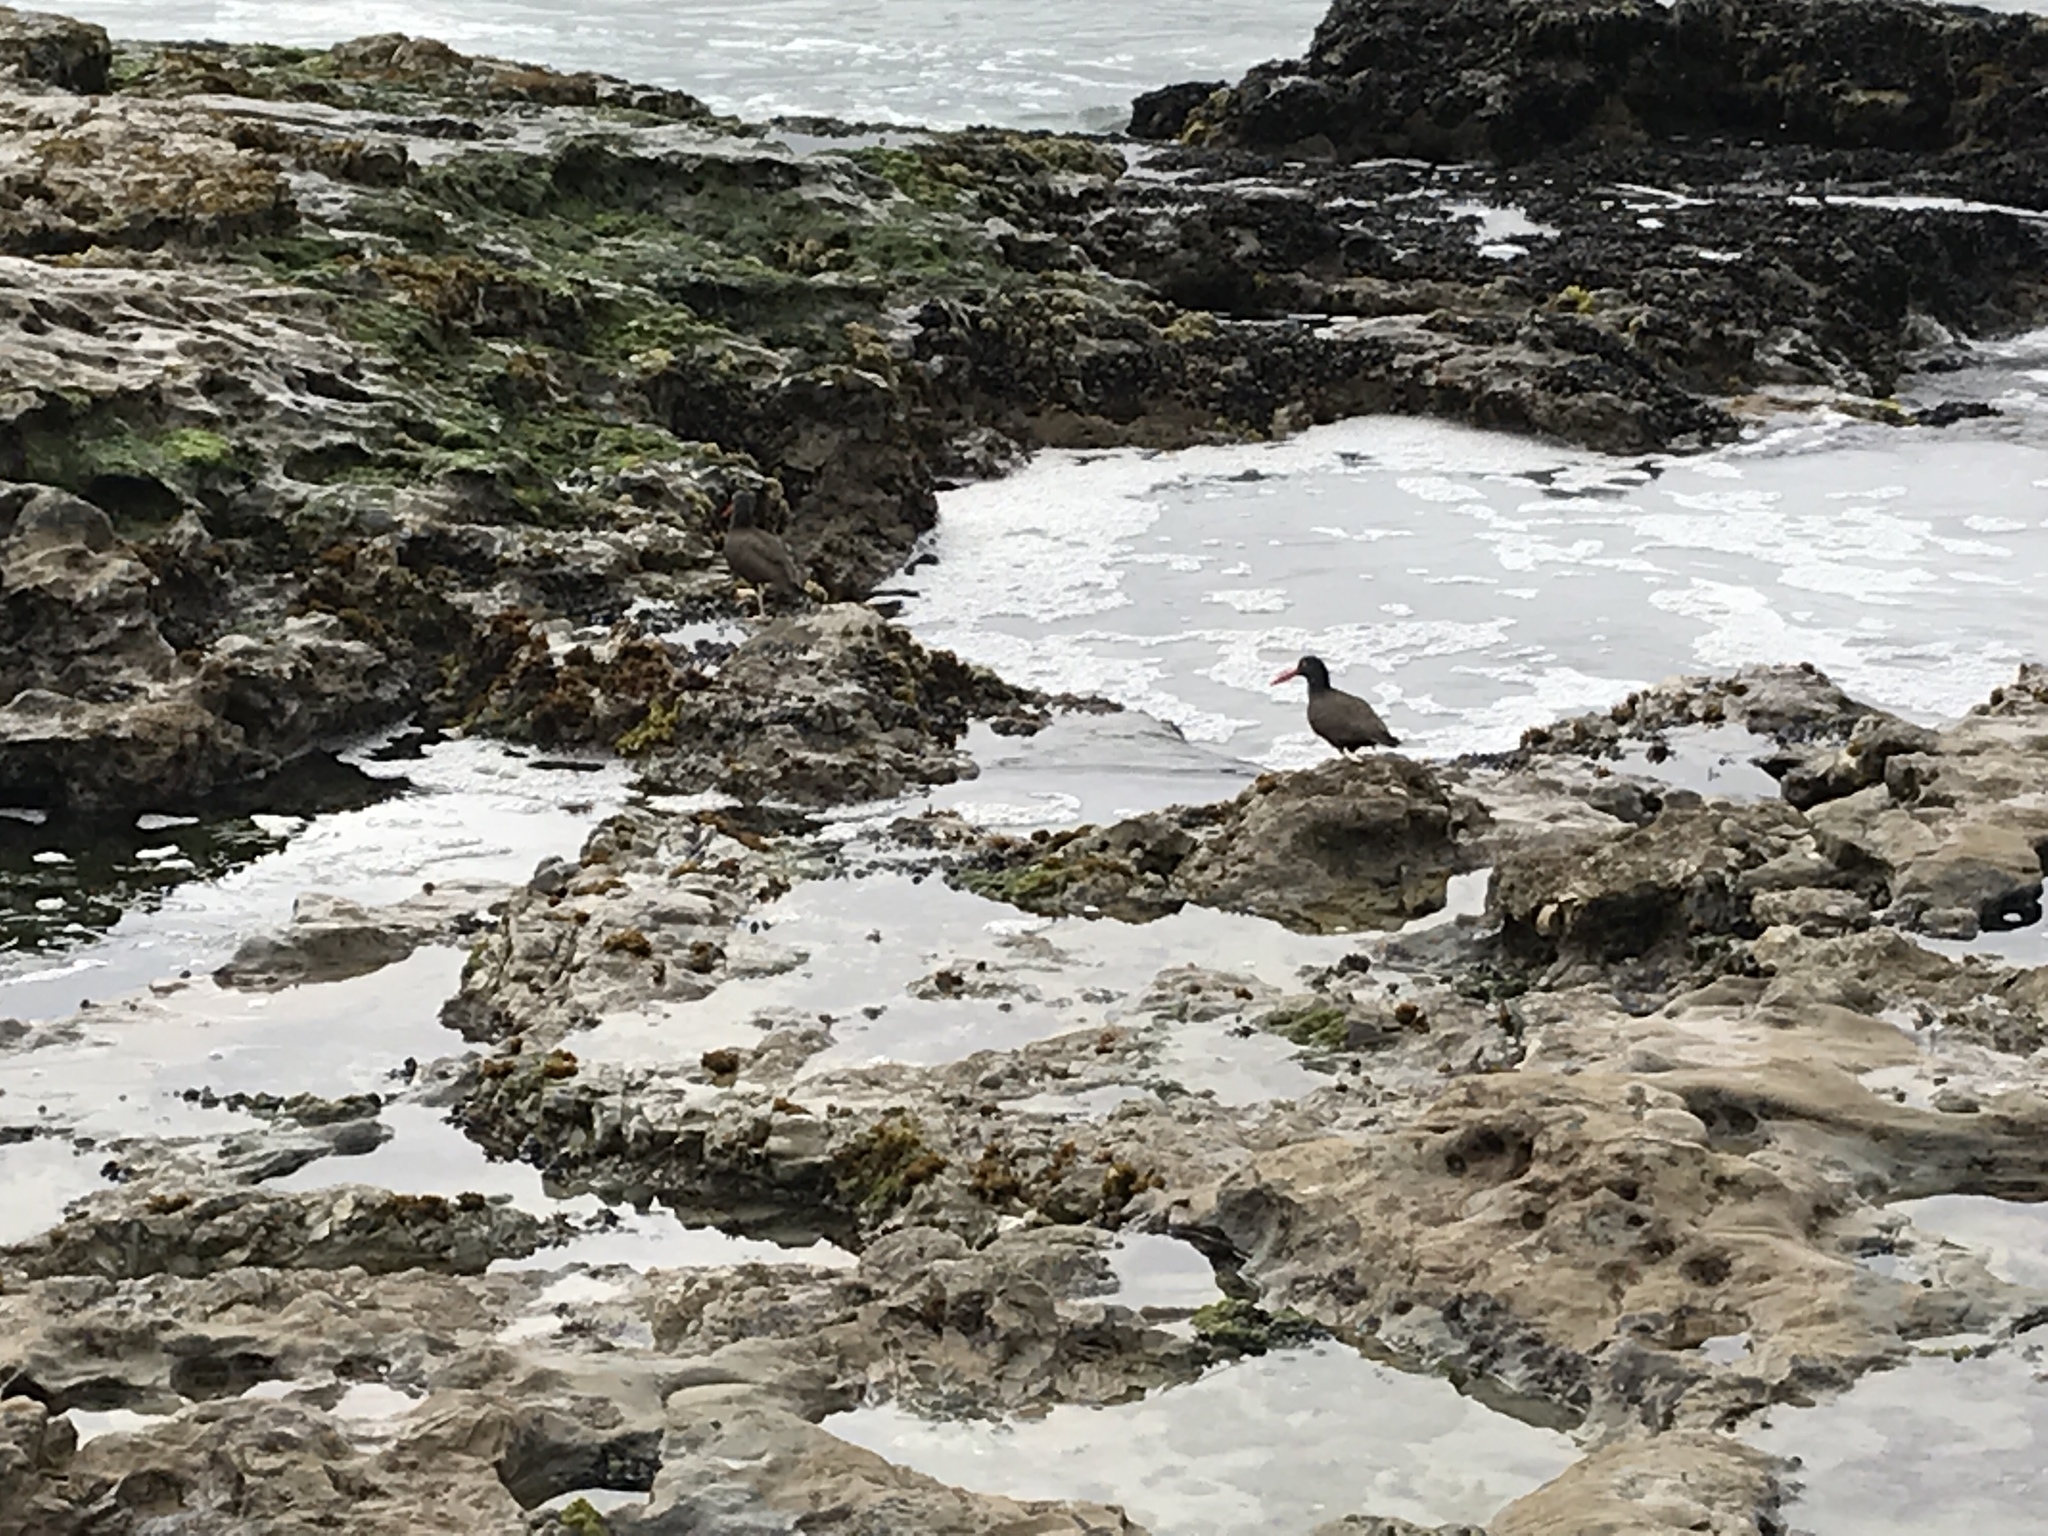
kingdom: Animalia
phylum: Chordata
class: Aves
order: Charadriiformes
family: Haematopodidae
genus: Haematopus
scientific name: Haematopus bachmani
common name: Black oystercatcher
